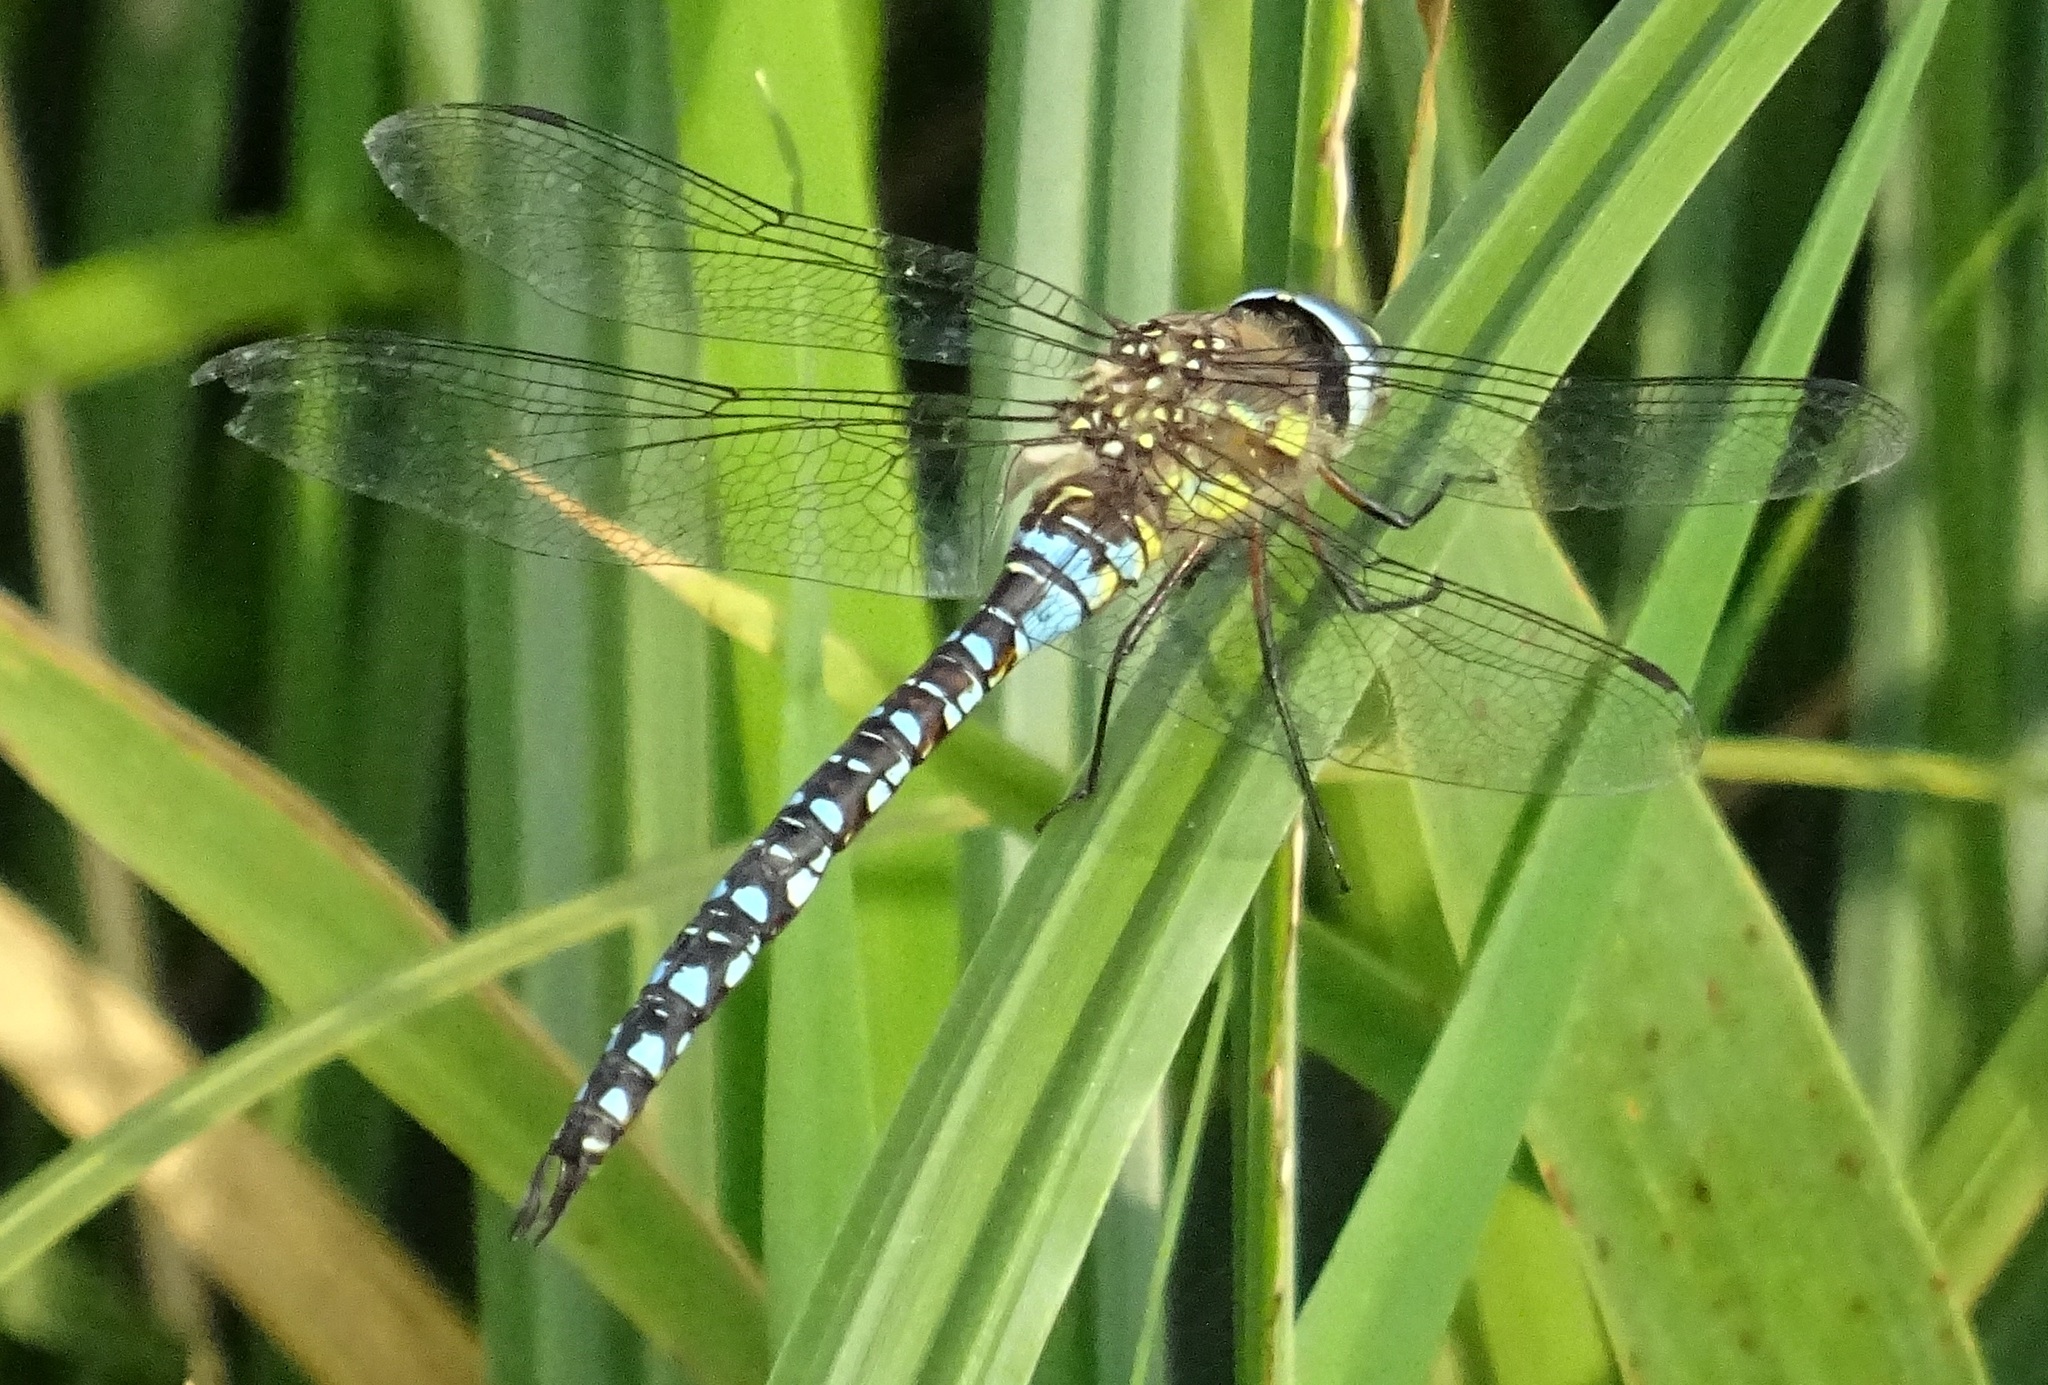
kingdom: Animalia
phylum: Arthropoda
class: Insecta
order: Odonata
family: Aeshnidae
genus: Aeshna
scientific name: Aeshna mixta
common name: Migrant hawker
